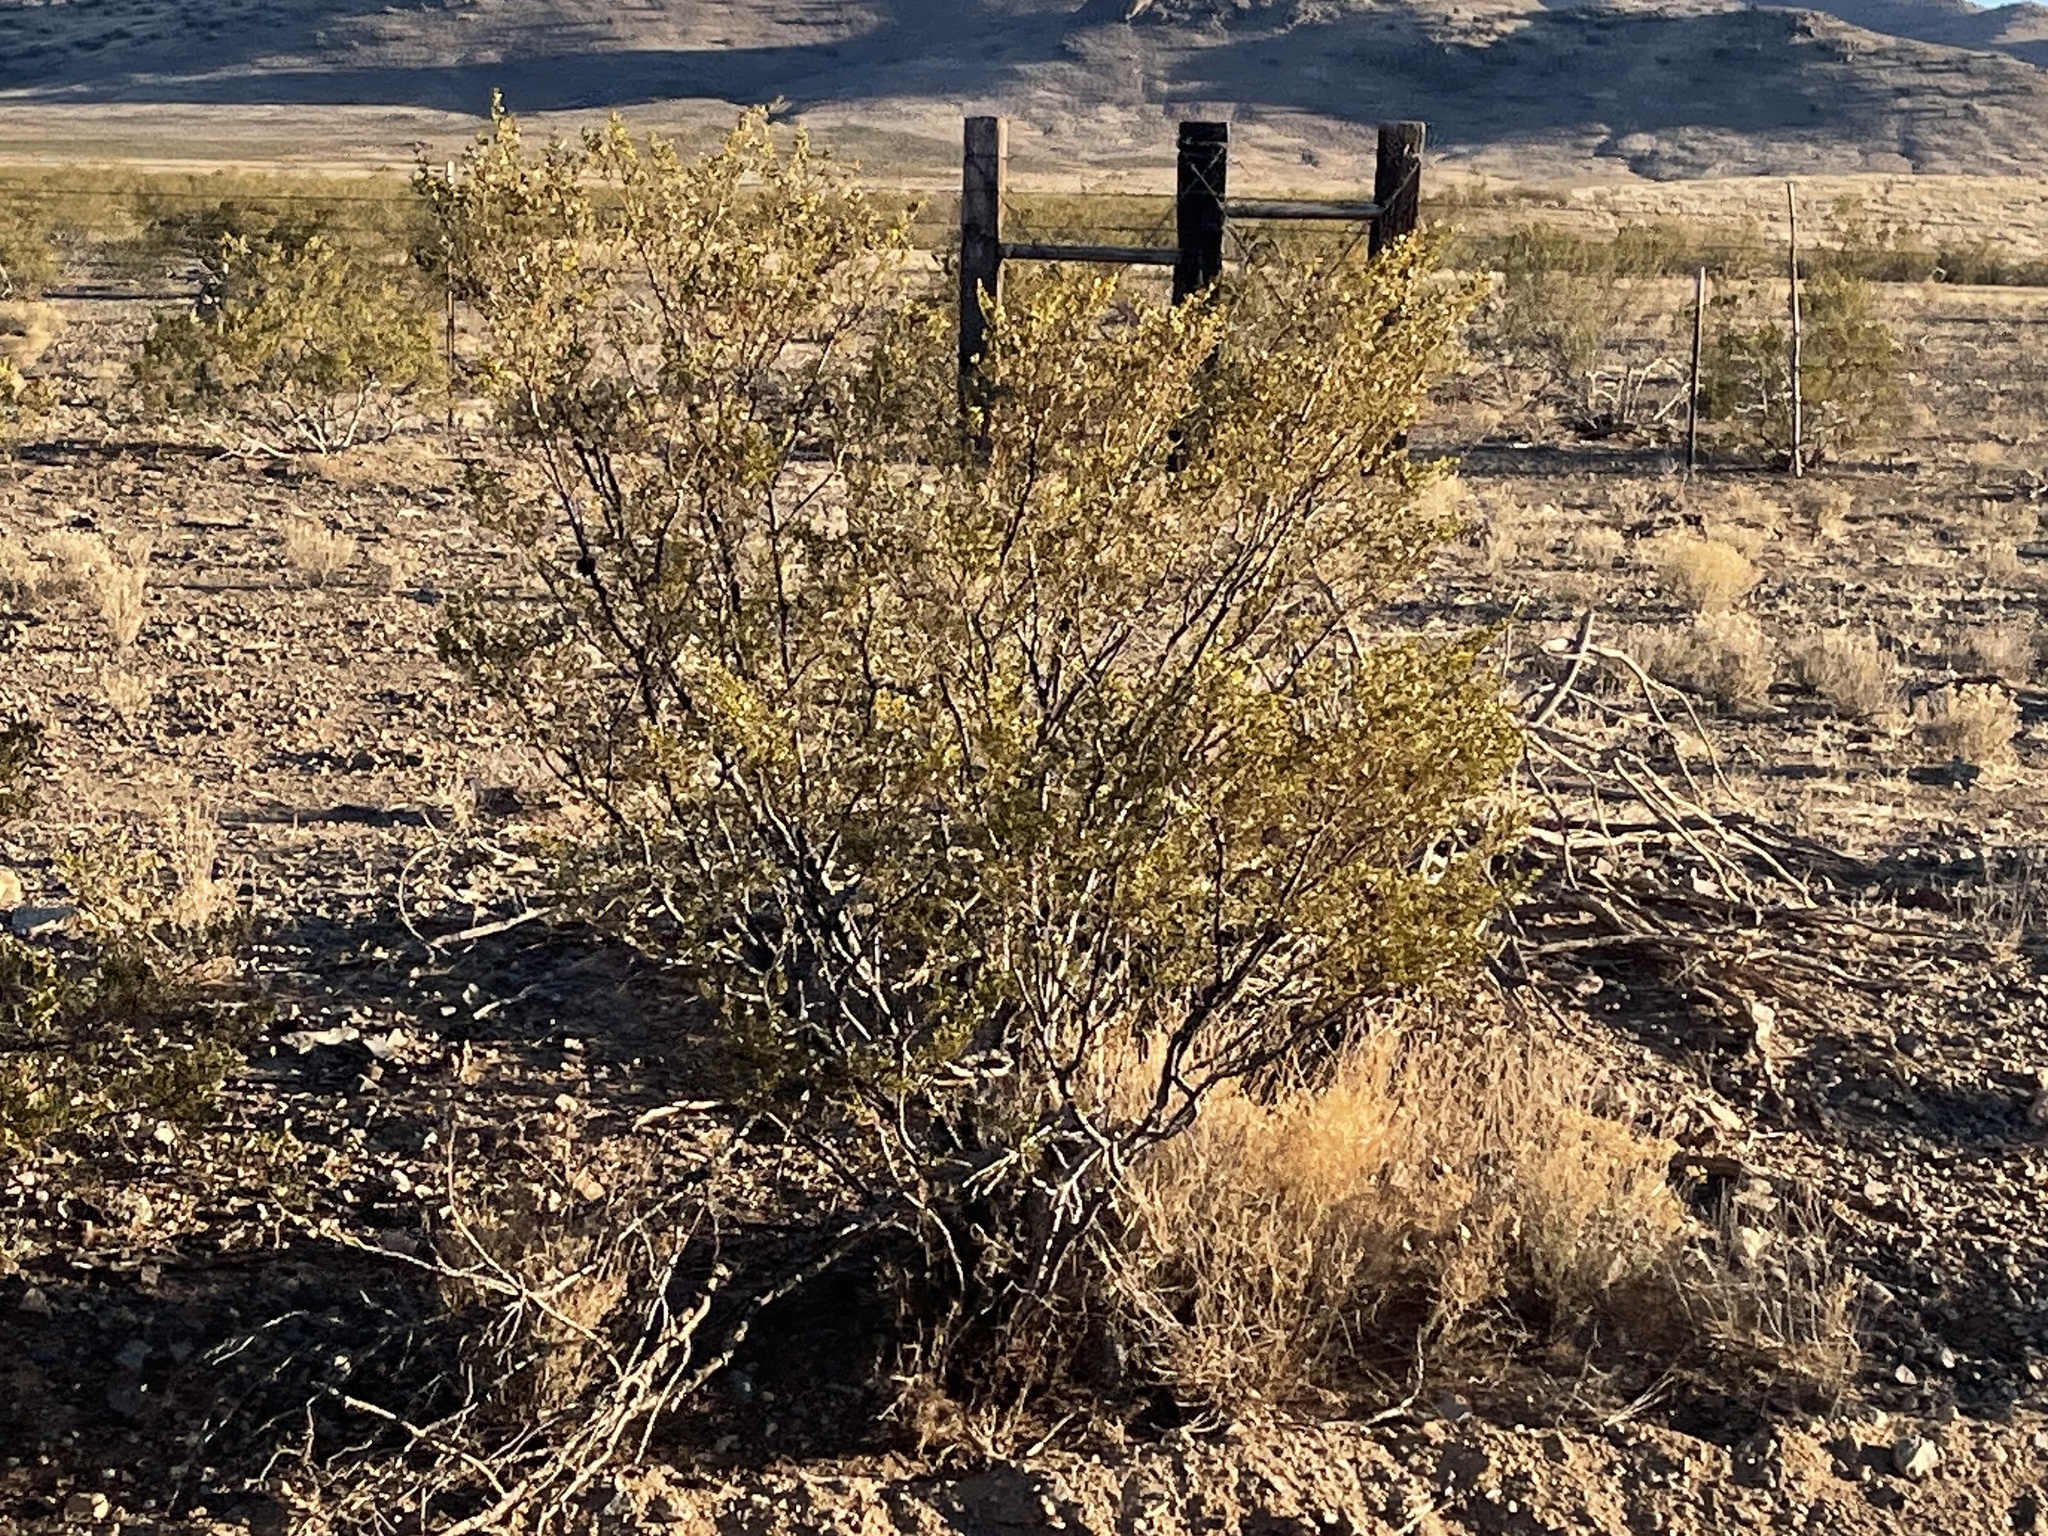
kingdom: Plantae
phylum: Tracheophyta
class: Magnoliopsida
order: Zygophyllales
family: Zygophyllaceae
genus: Larrea
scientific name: Larrea tridentata
